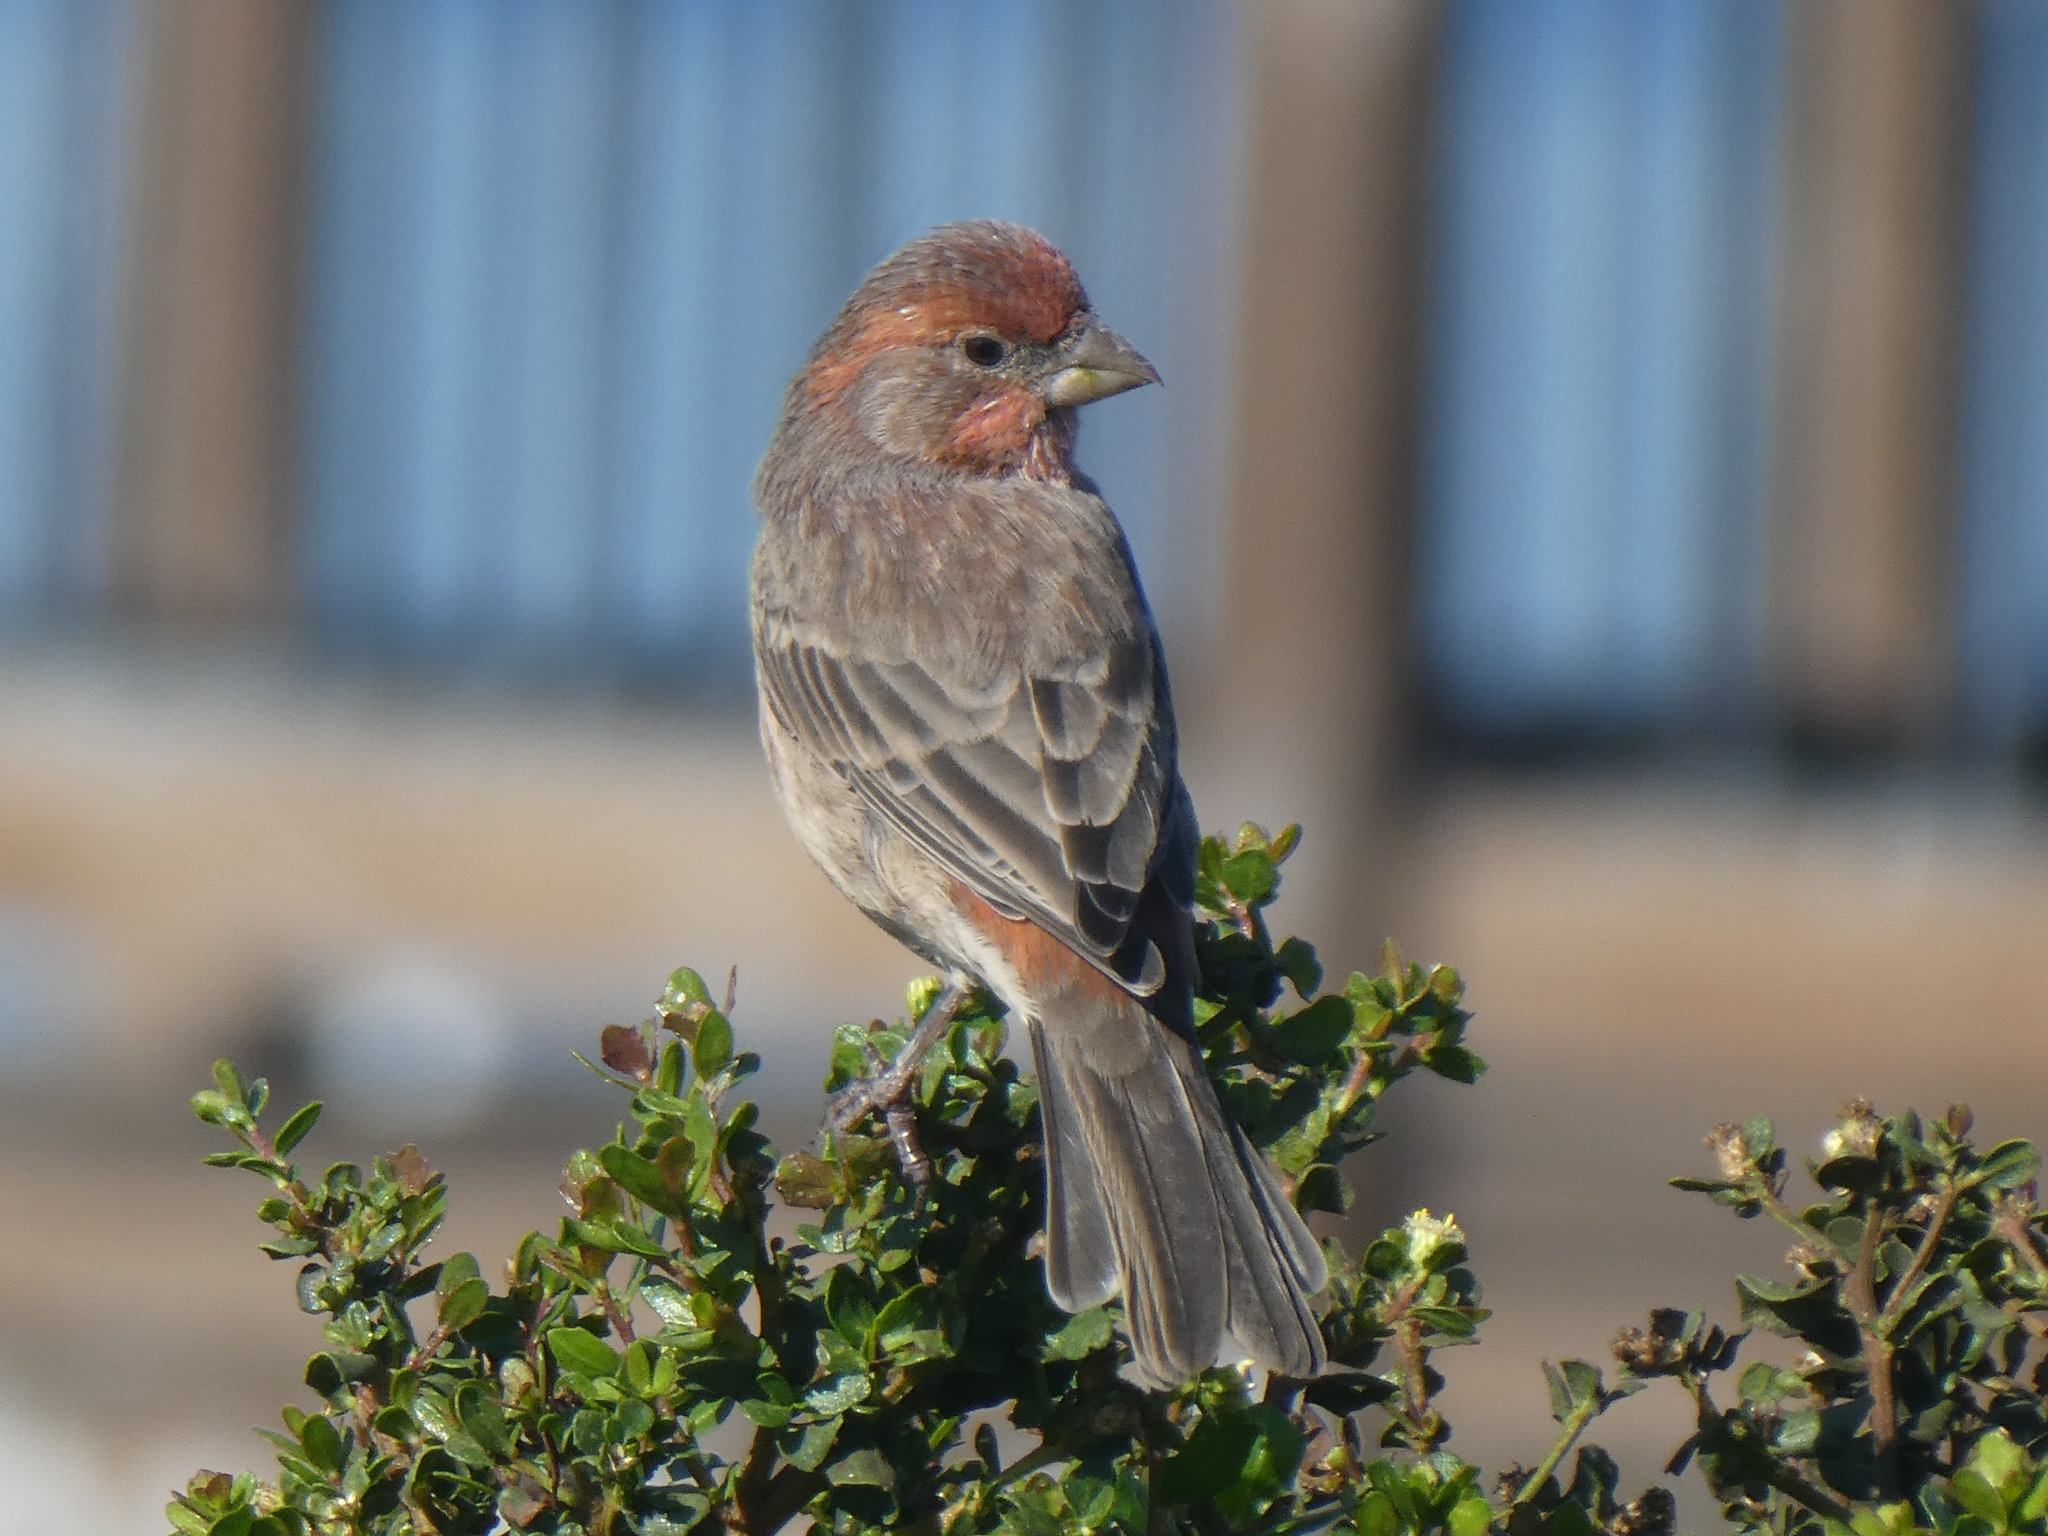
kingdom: Animalia
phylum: Chordata
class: Aves
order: Passeriformes
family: Fringillidae
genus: Haemorhous
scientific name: Haemorhous mexicanus
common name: House finch
